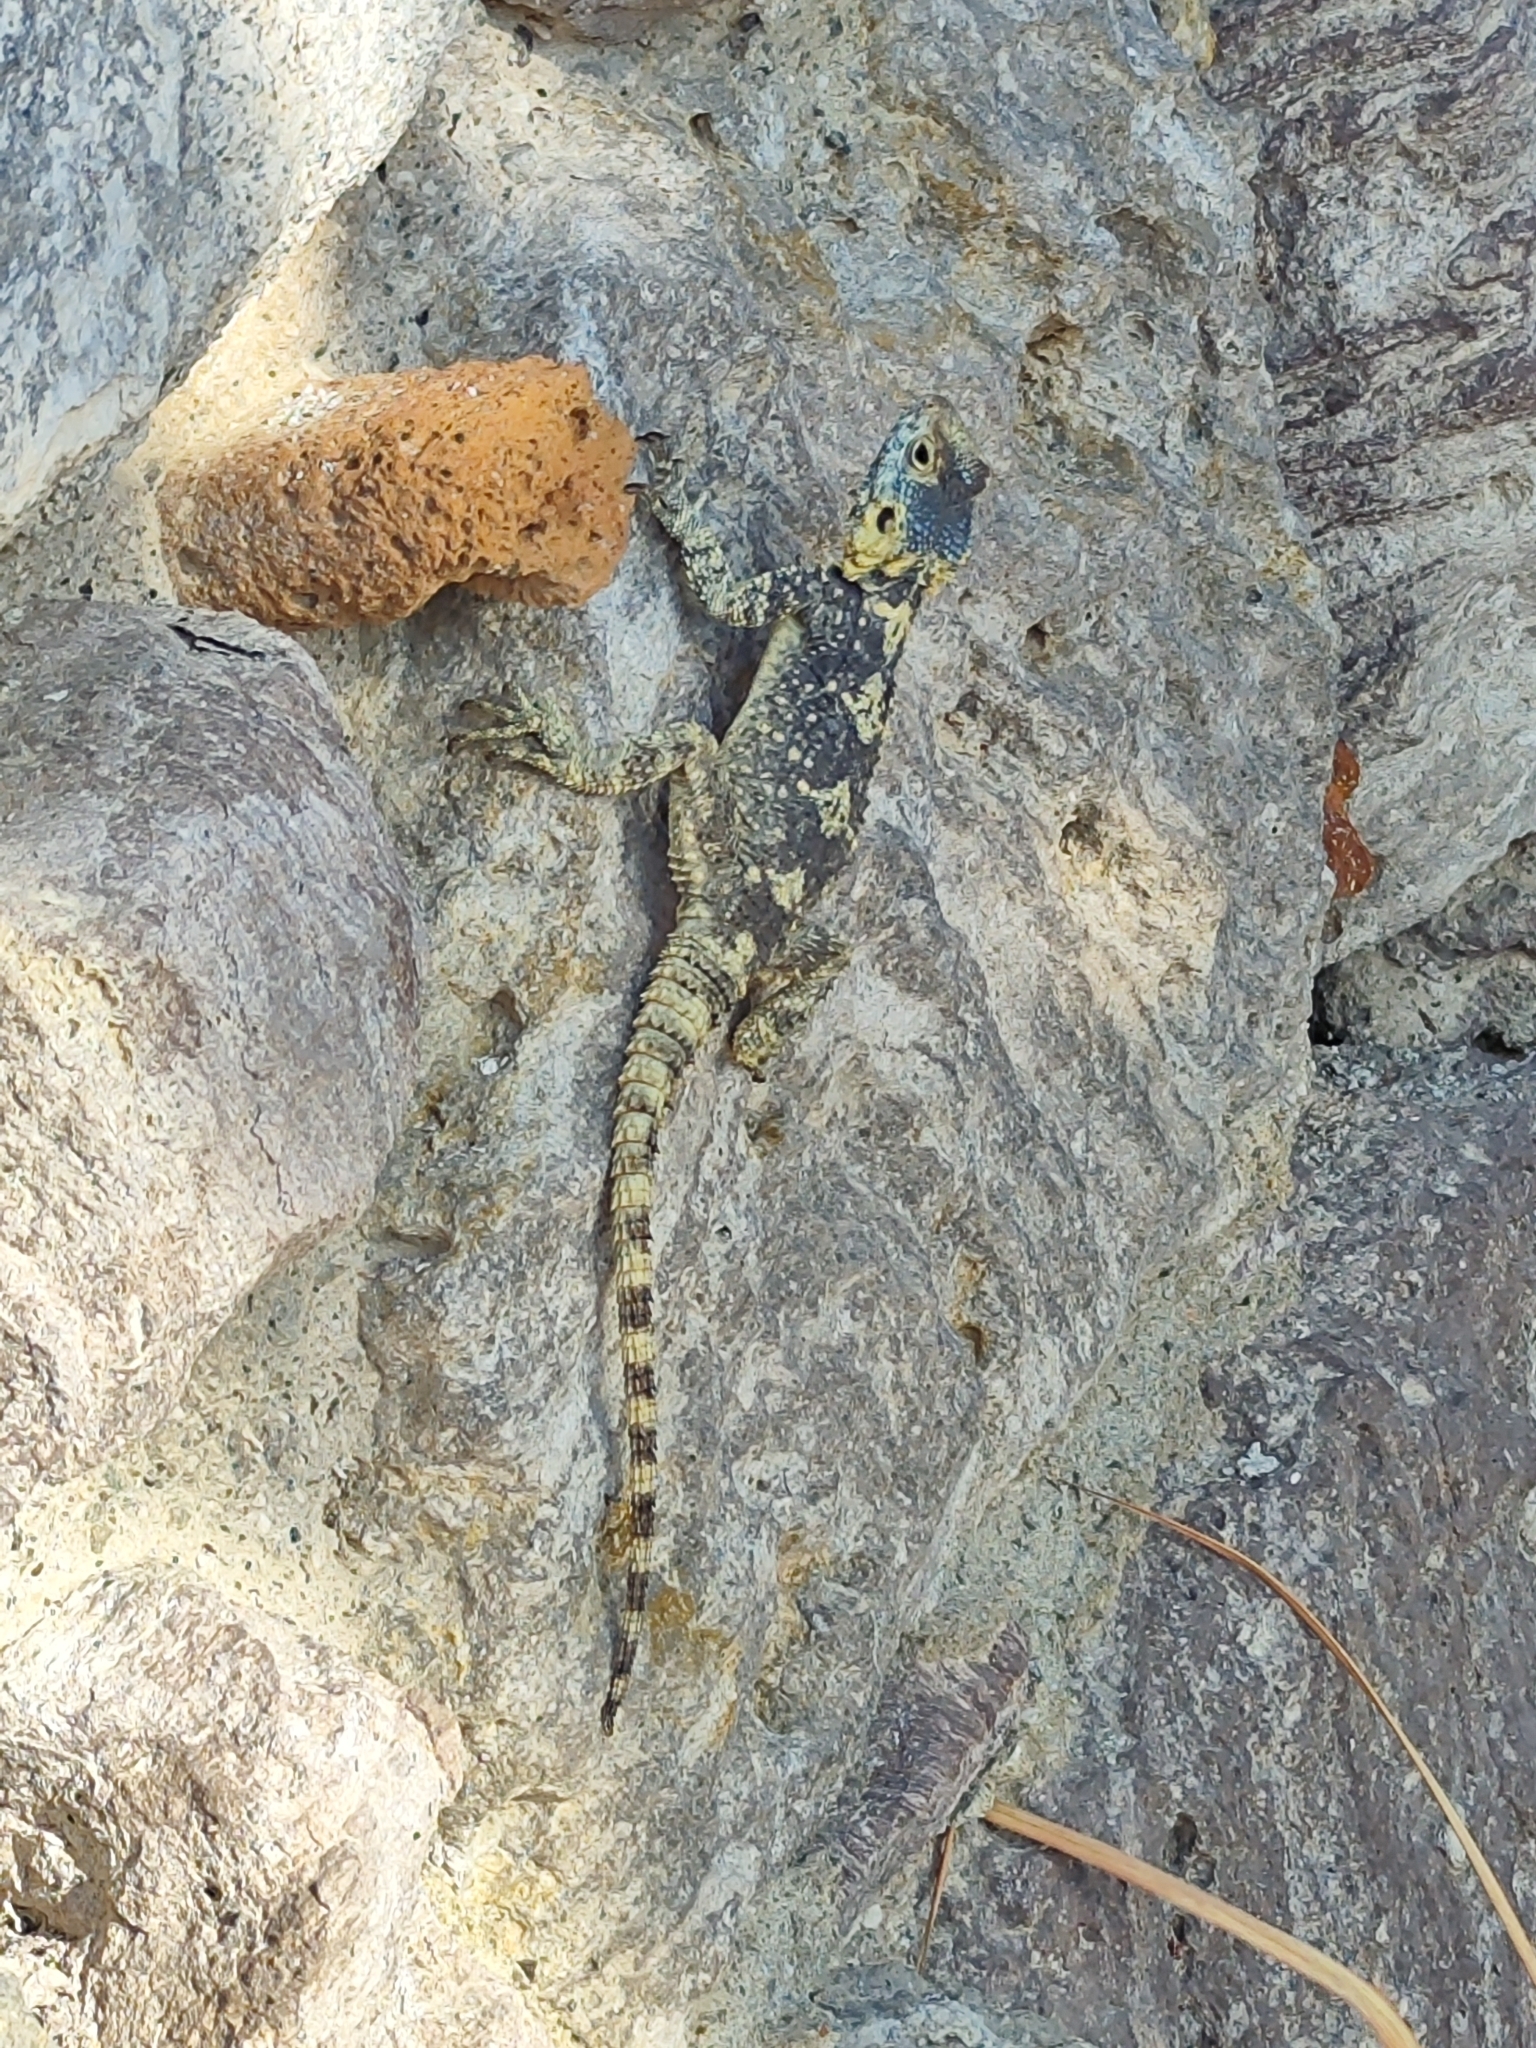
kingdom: Animalia
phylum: Chordata
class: Squamata
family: Agamidae
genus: Stellagama
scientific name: Stellagama stellio
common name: Starred agama
